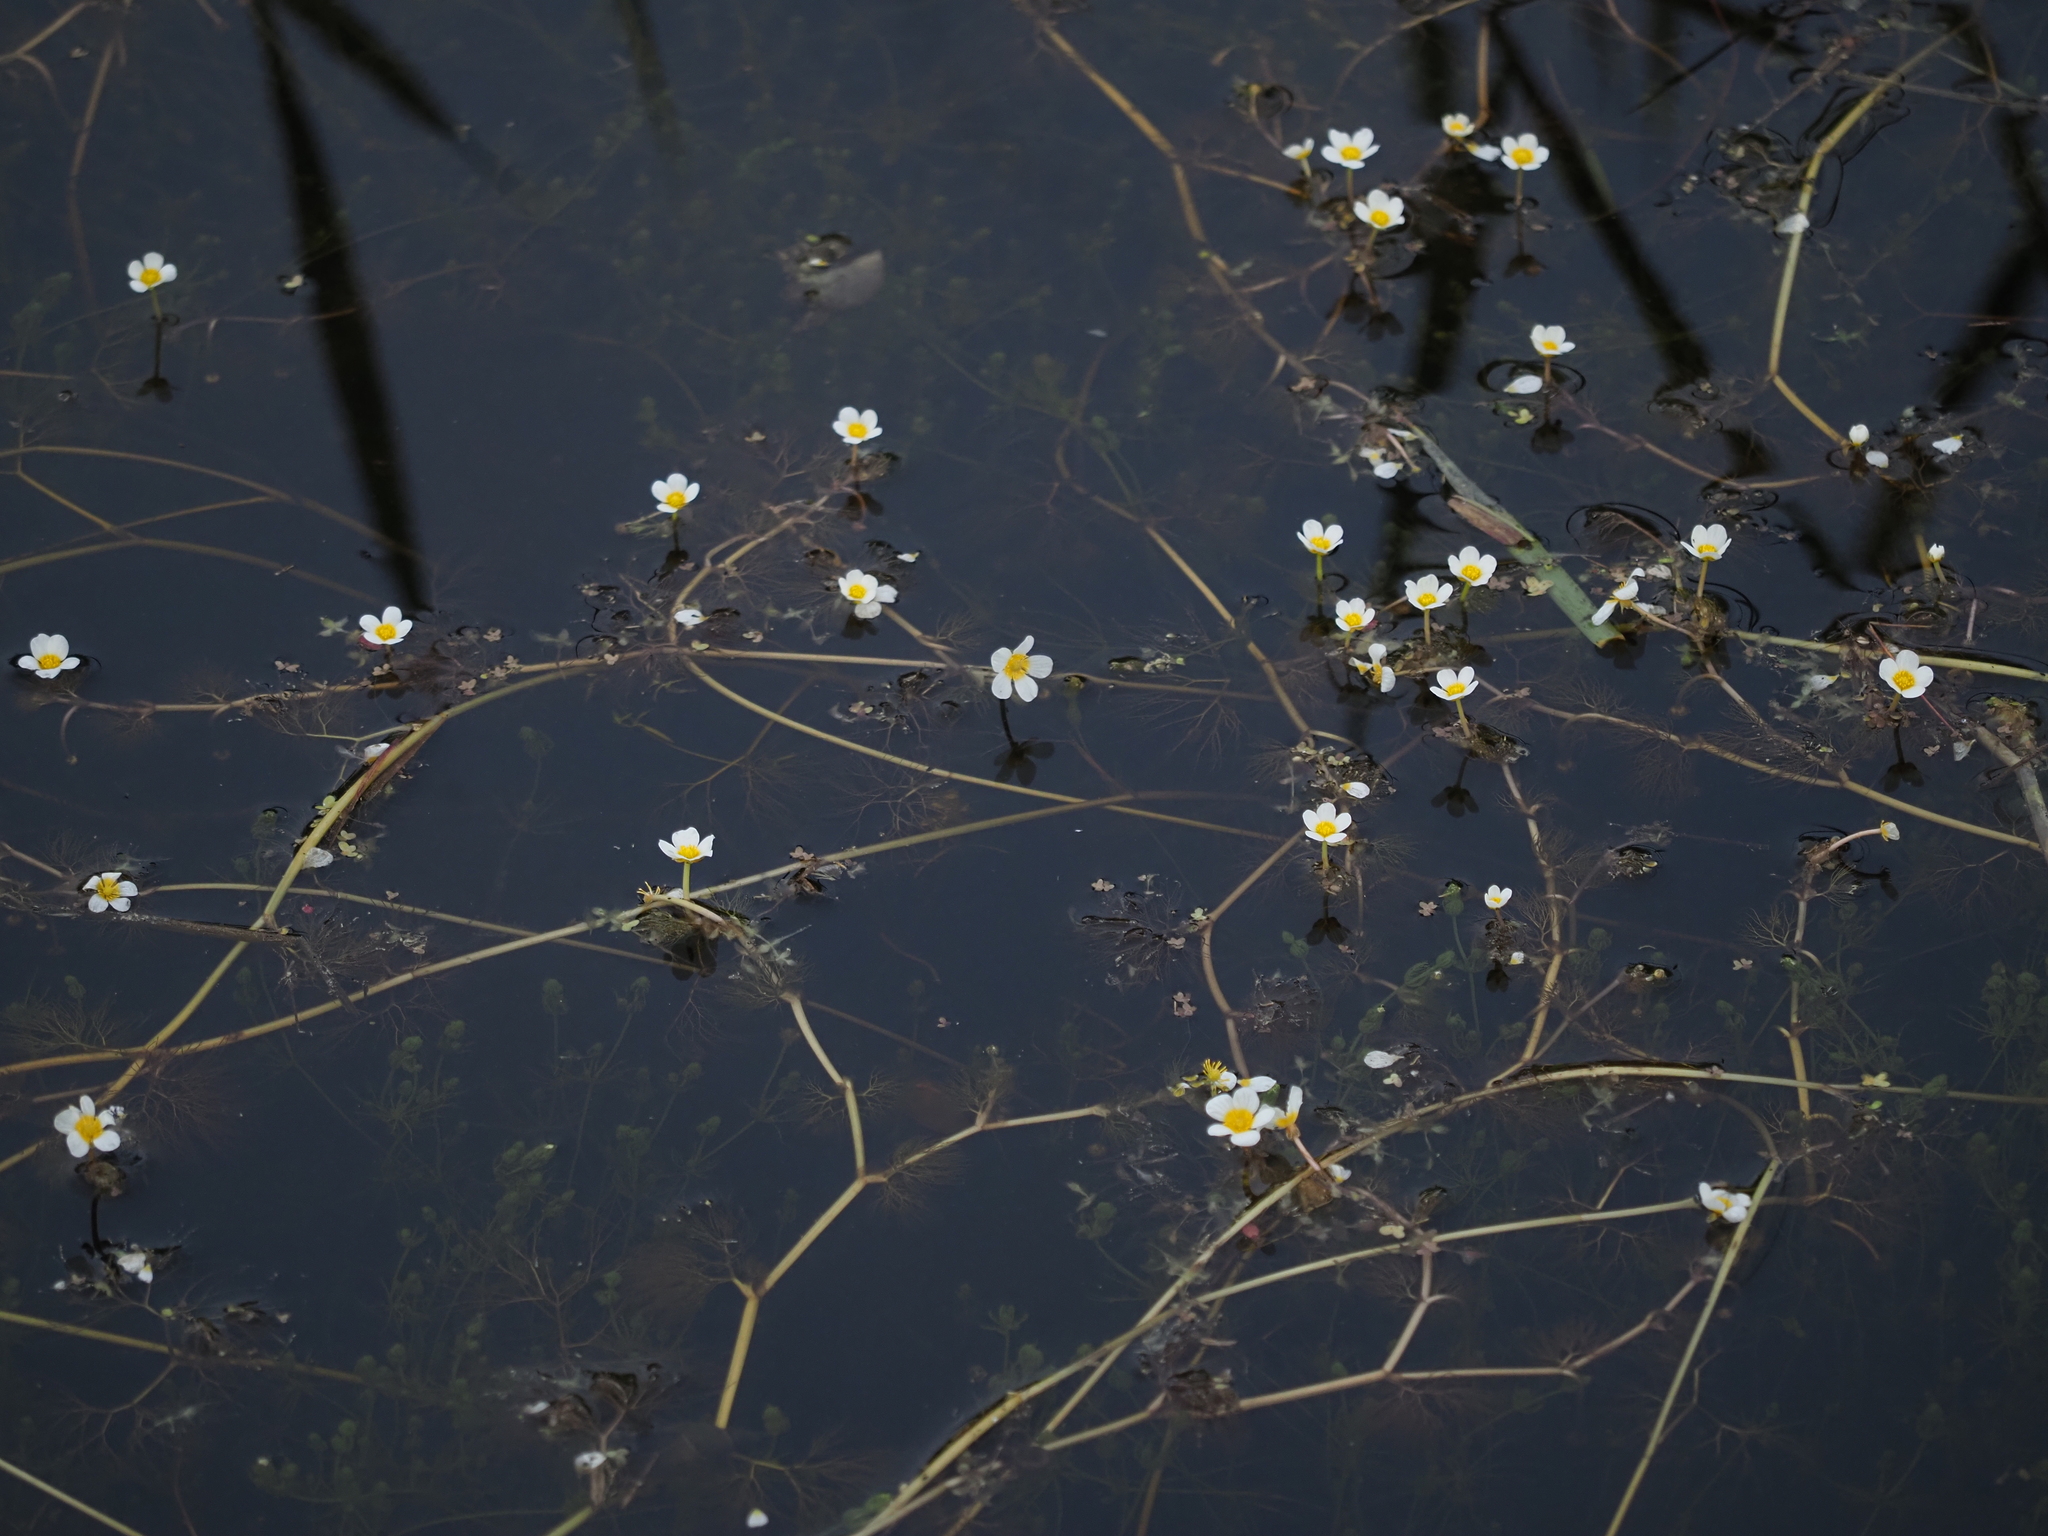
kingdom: Plantae
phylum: Tracheophyta
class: Magnoliopsida
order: Ranunculales
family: Ranunculaceae
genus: Ranunculus
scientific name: Ranunculus aquatilis
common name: Common water-crowfoot
